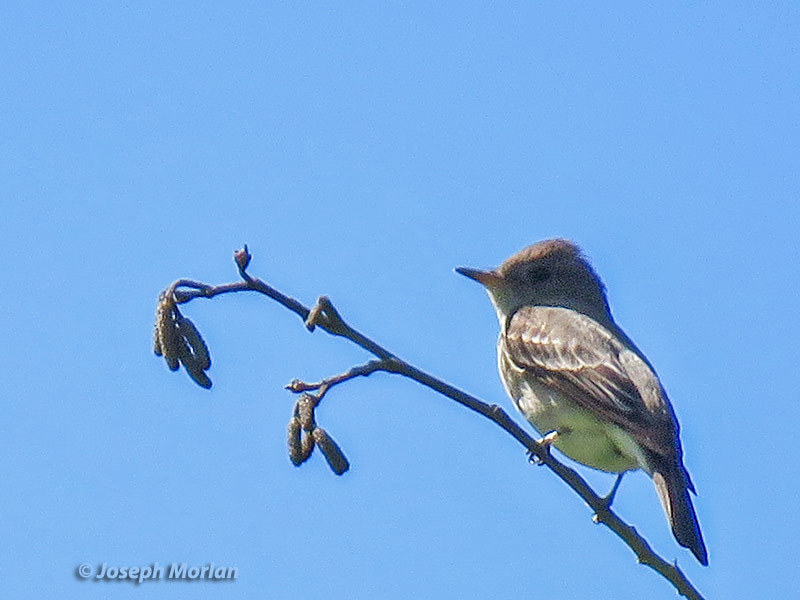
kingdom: Animalia
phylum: Chordata
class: Aves
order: Passeriformes
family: Tyrannidae
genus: Contopus
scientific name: Contopus sordidulus
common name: Western wood-pewee
